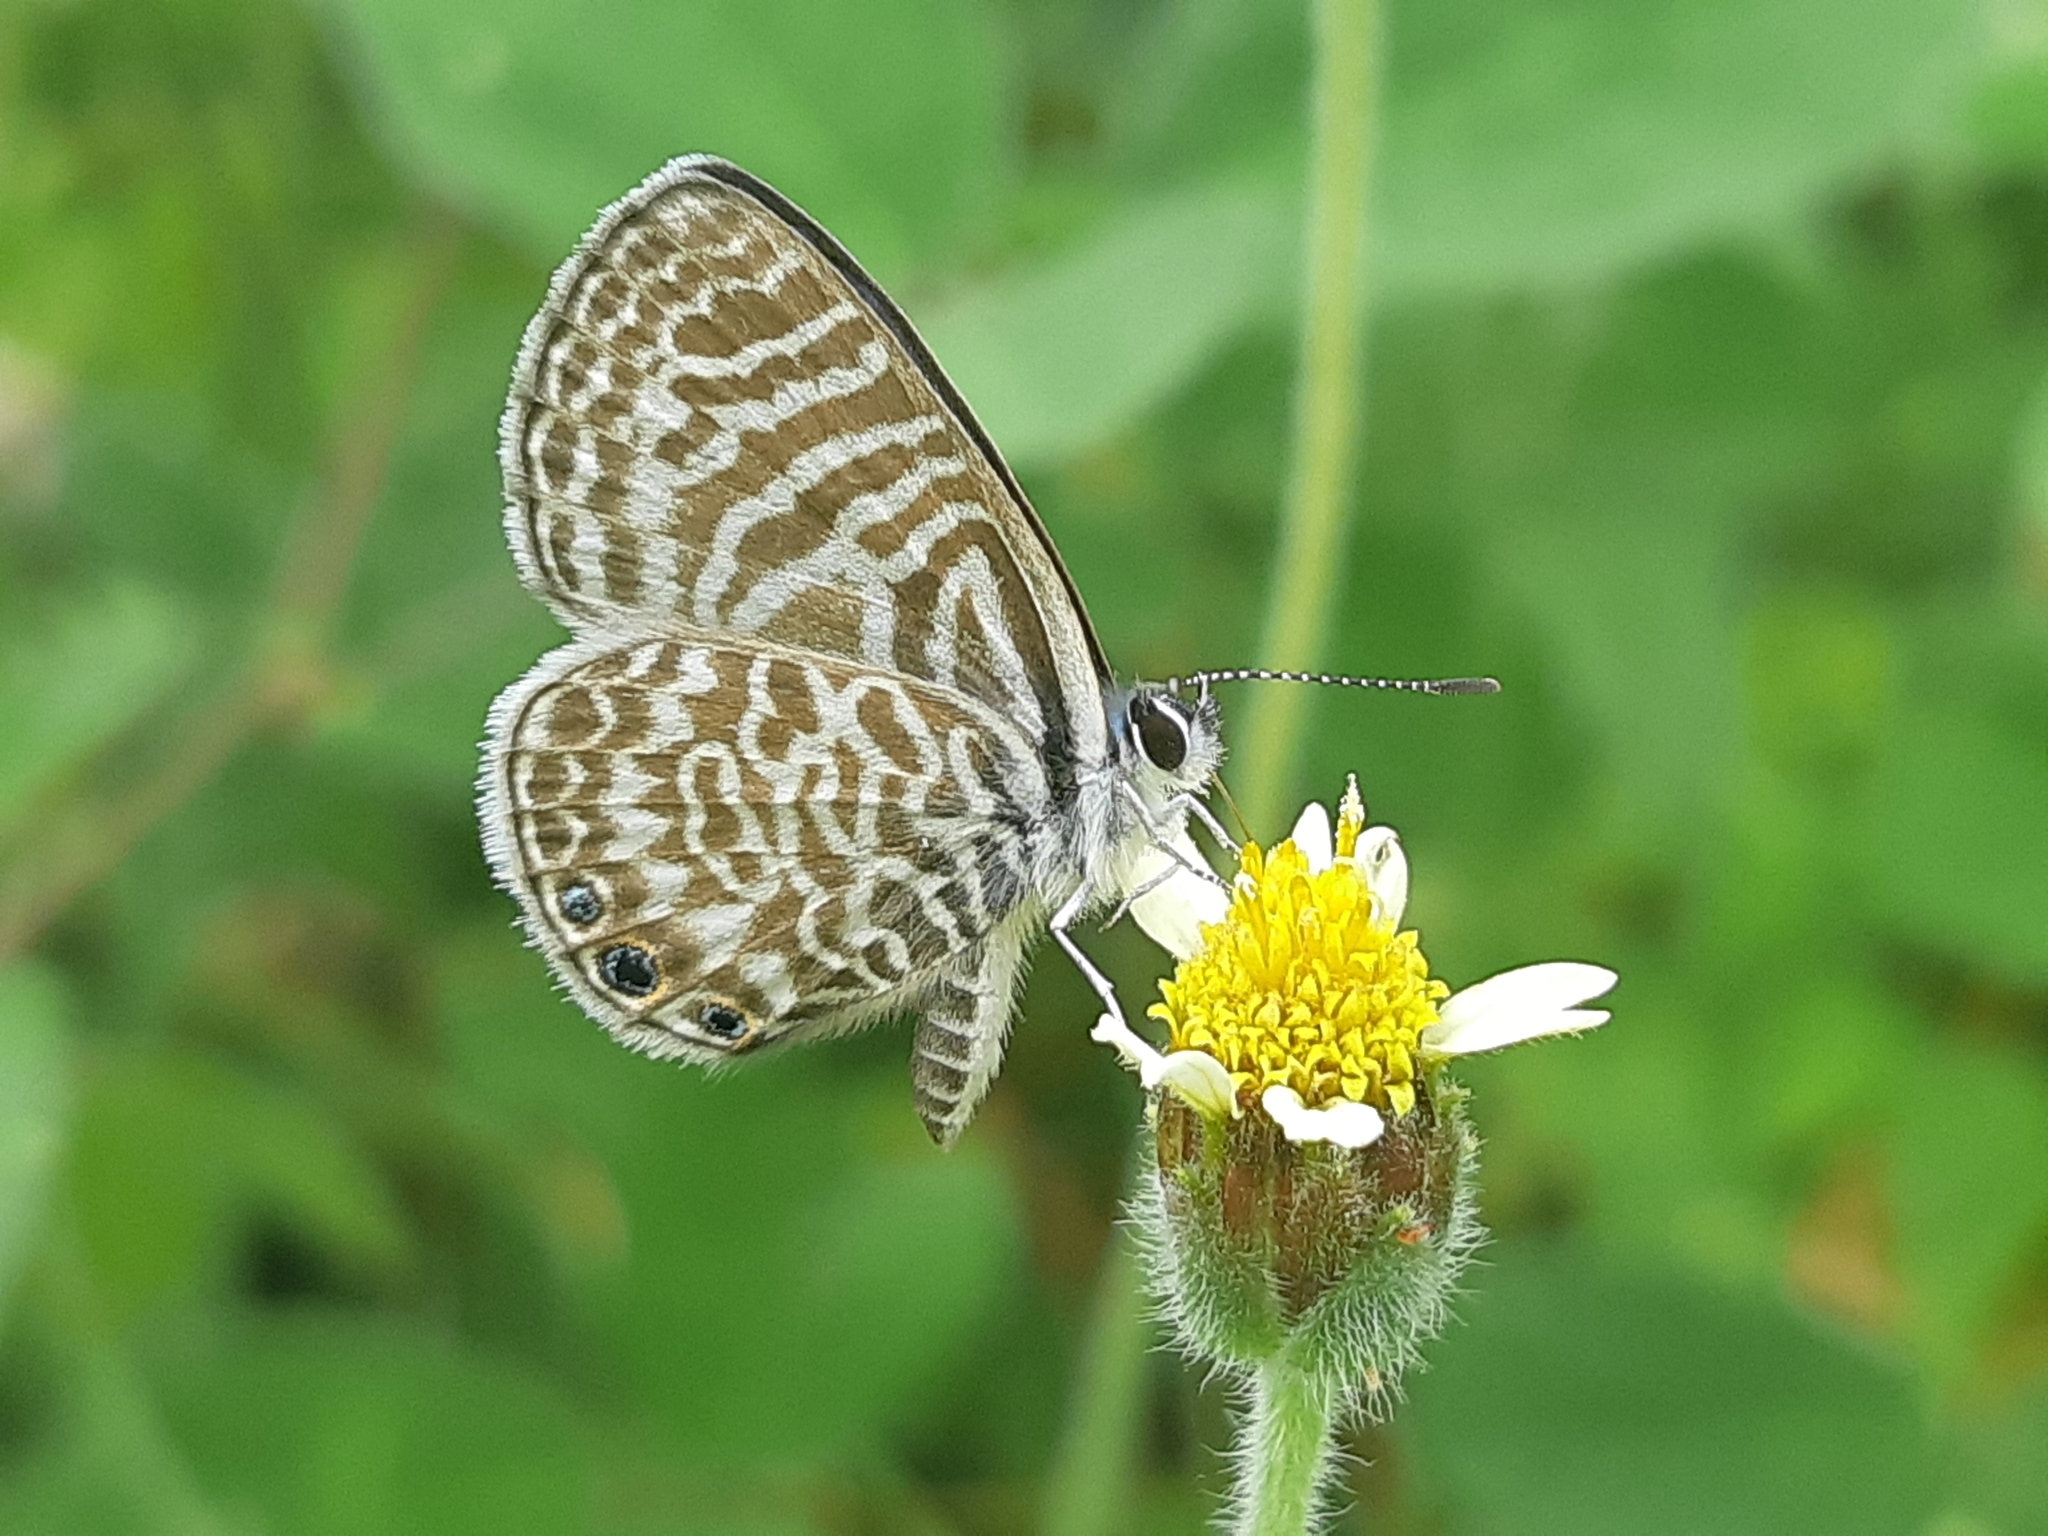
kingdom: Animalia
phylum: Arthropoda
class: Insecta
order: Lepidoptera
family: Lycaenidae
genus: Leptotes
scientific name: Leptotes
